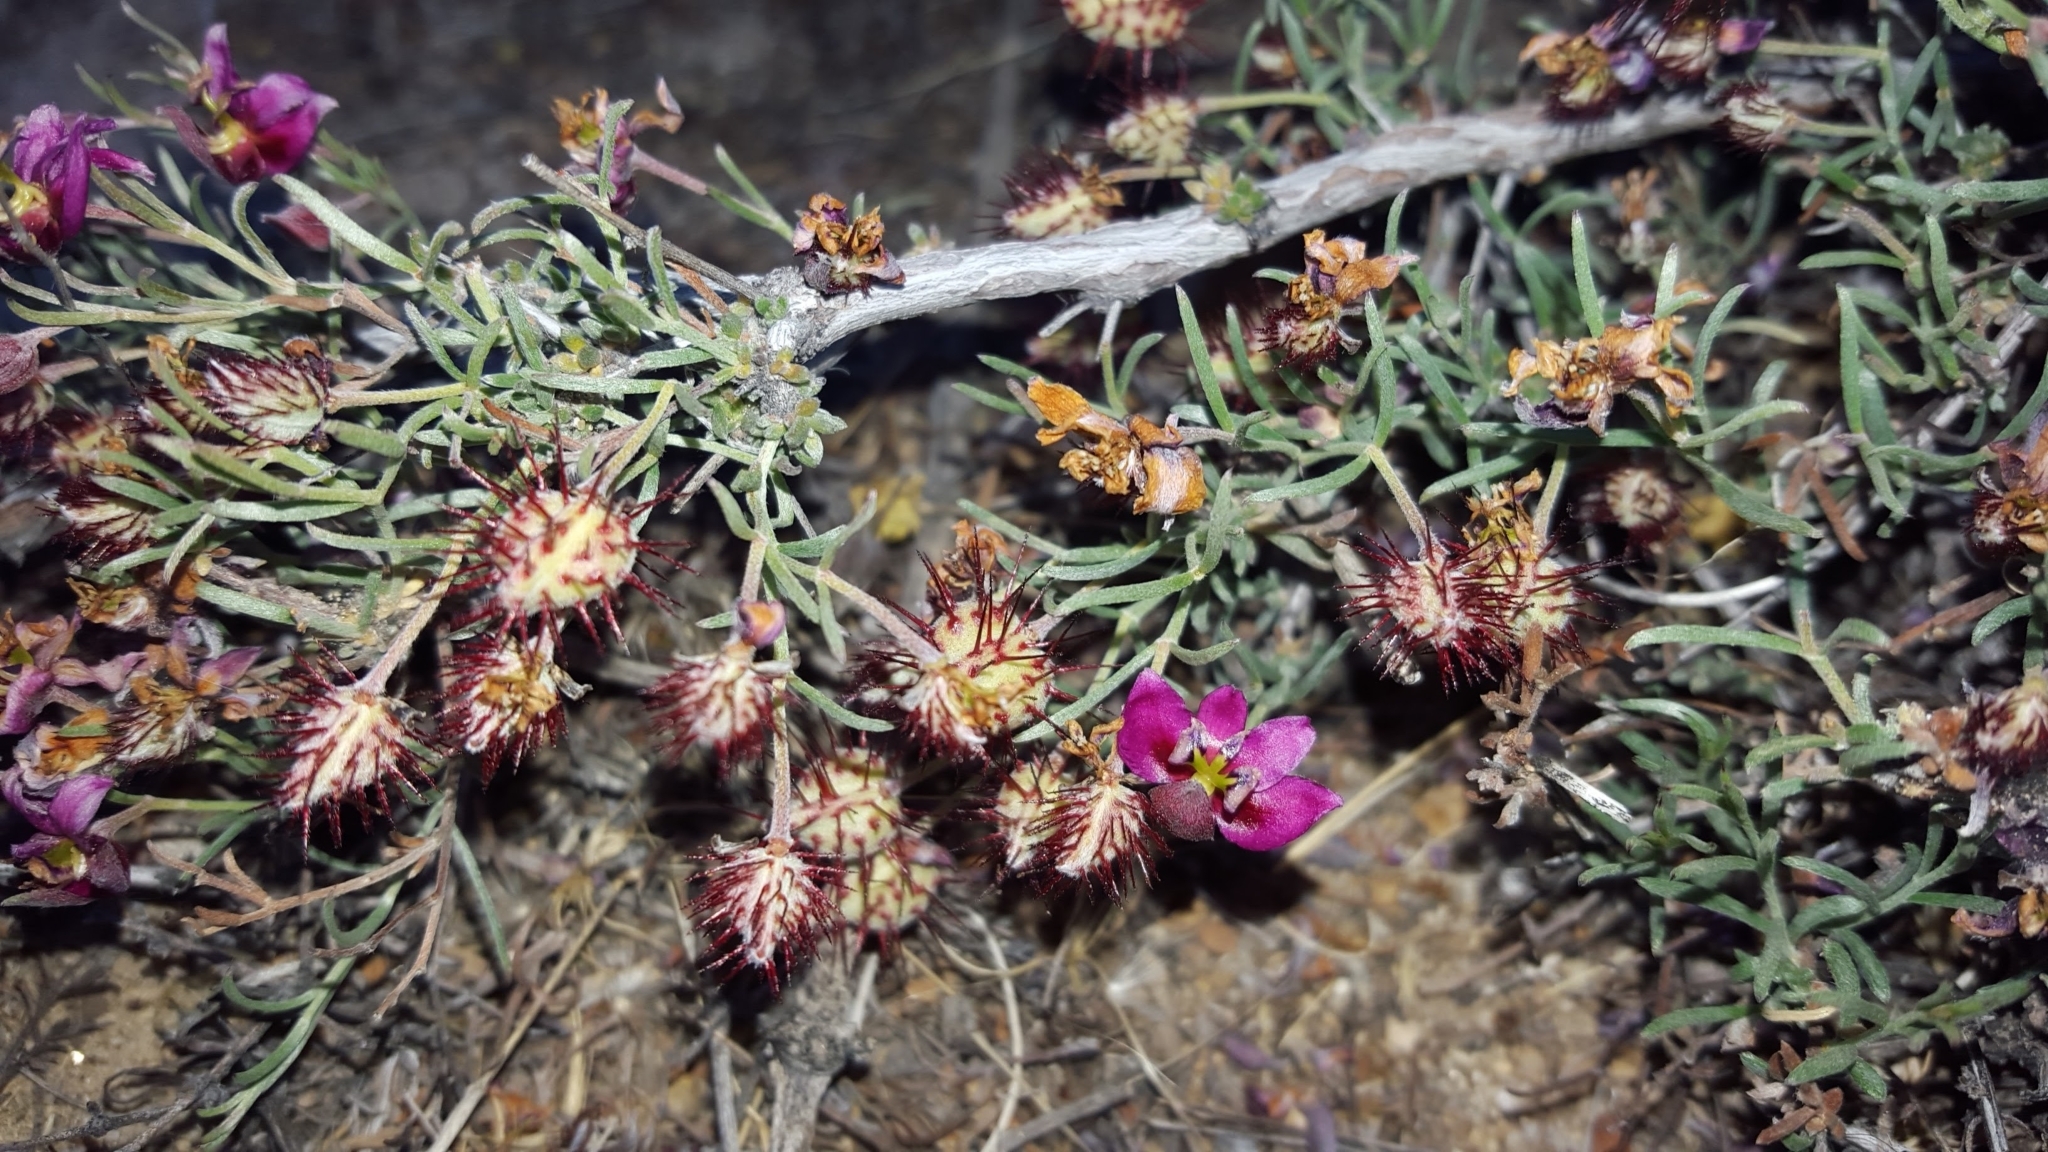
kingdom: Plantae
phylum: Tracheophyta
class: Magnoliopsida
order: Zygophyllales
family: Krameriaceae
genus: Krameria
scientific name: Krameria erecta
